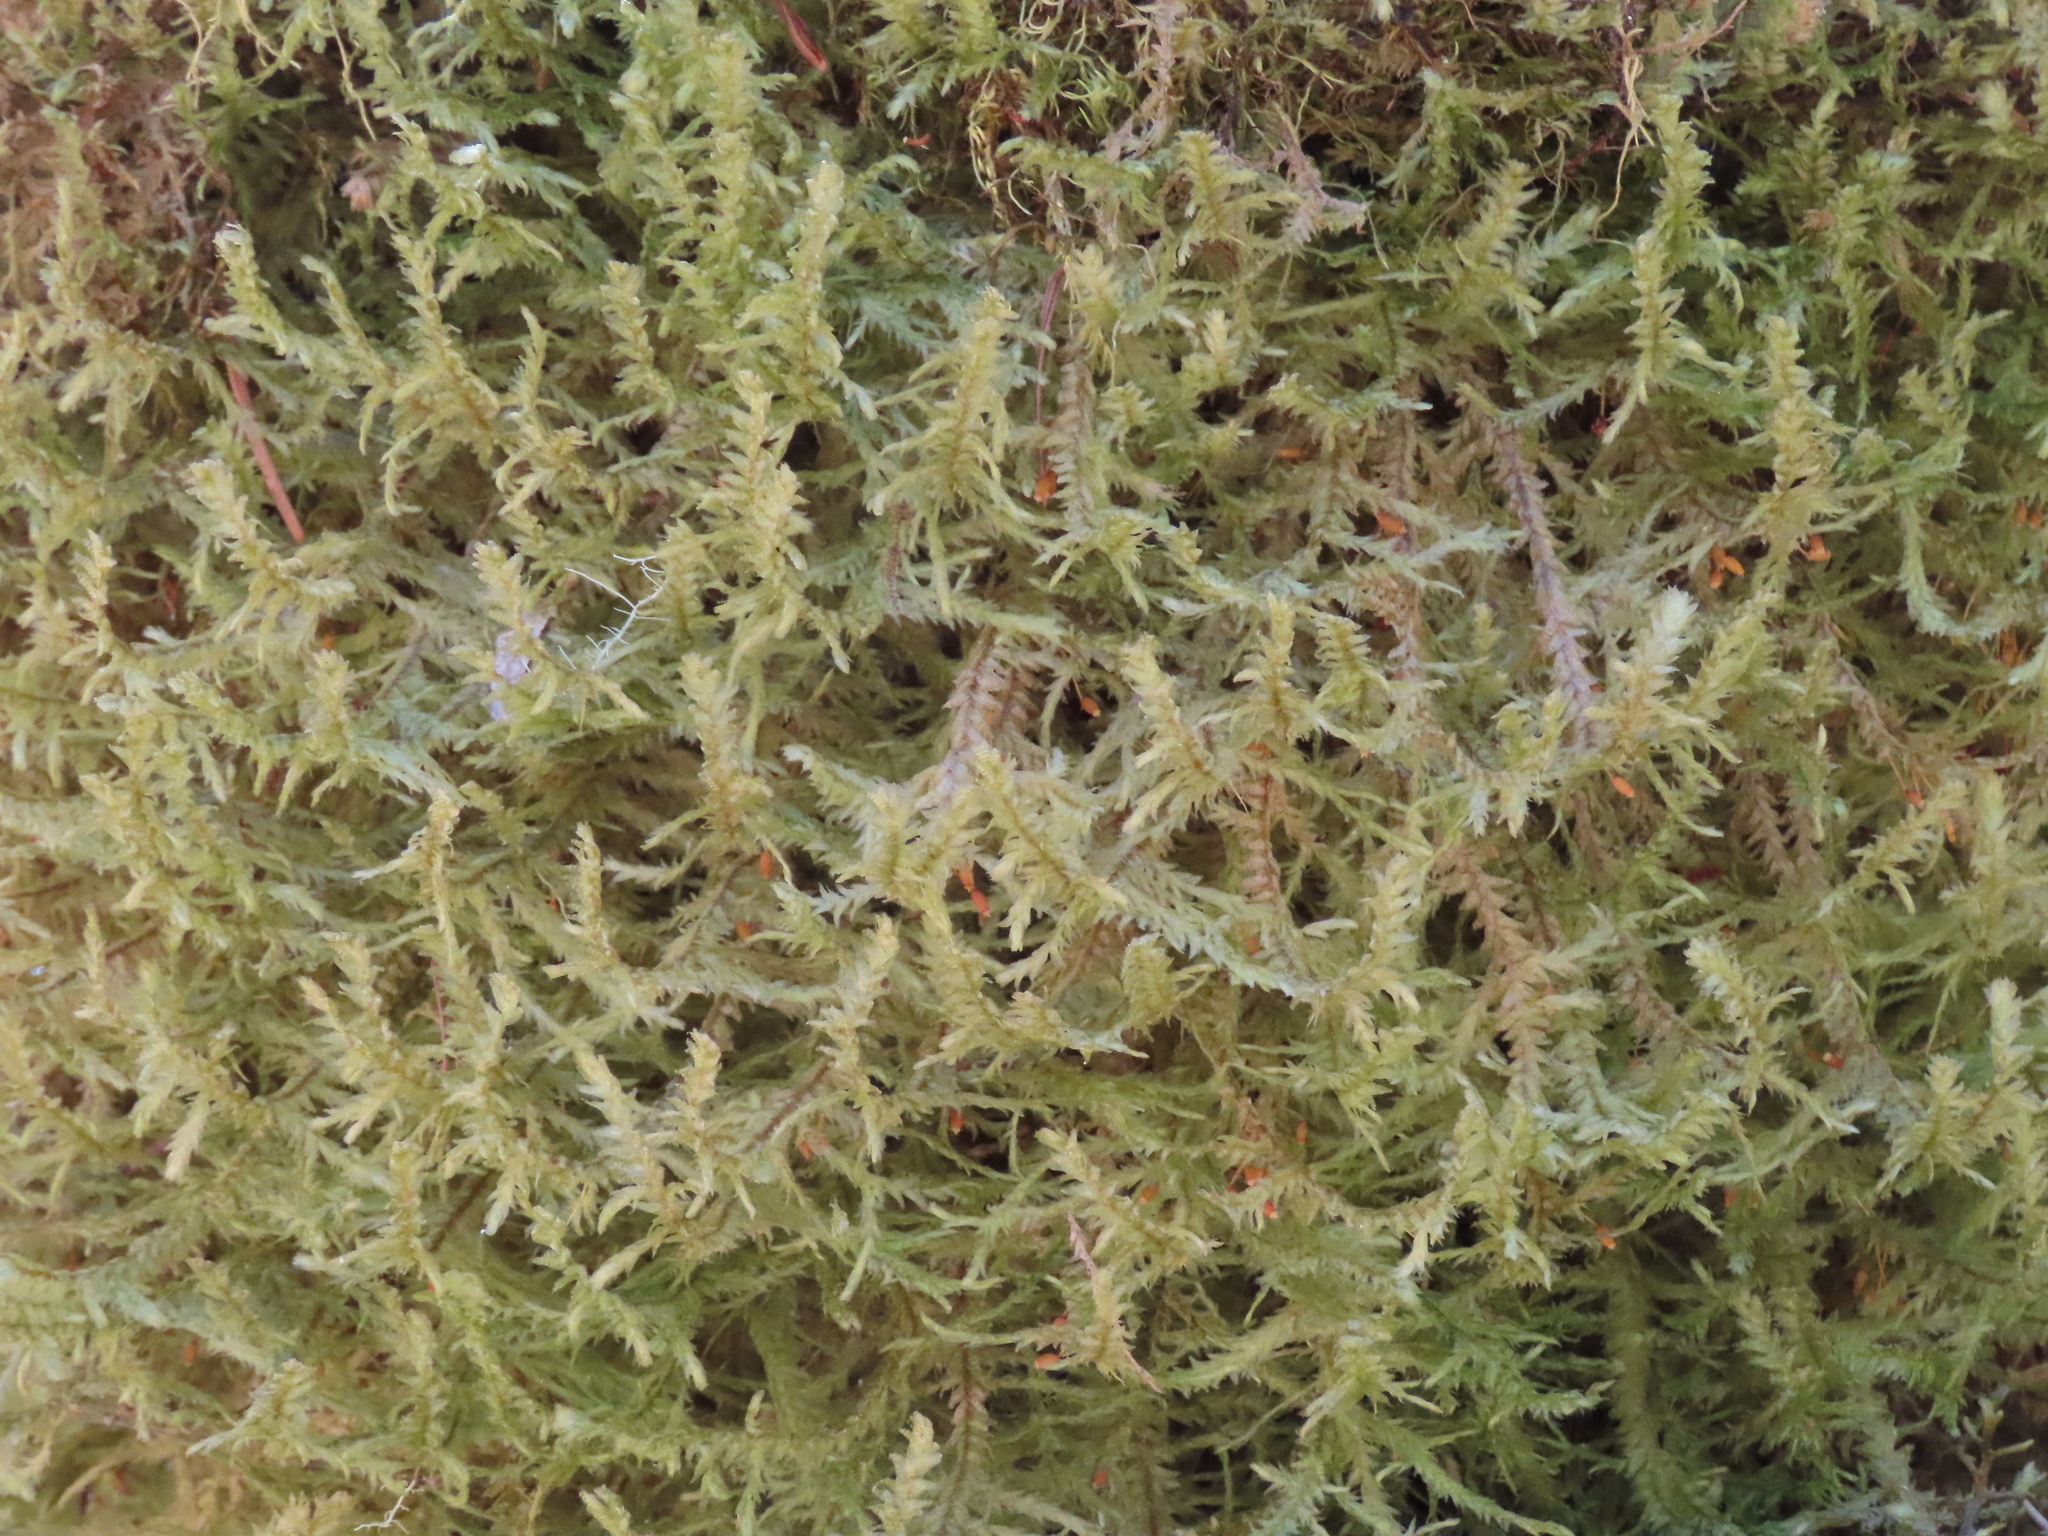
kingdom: Plantae
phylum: Bryophyta
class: Bryopsida
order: Hypnales
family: Neckeraceae
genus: Neckera
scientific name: Neckera douglasii
